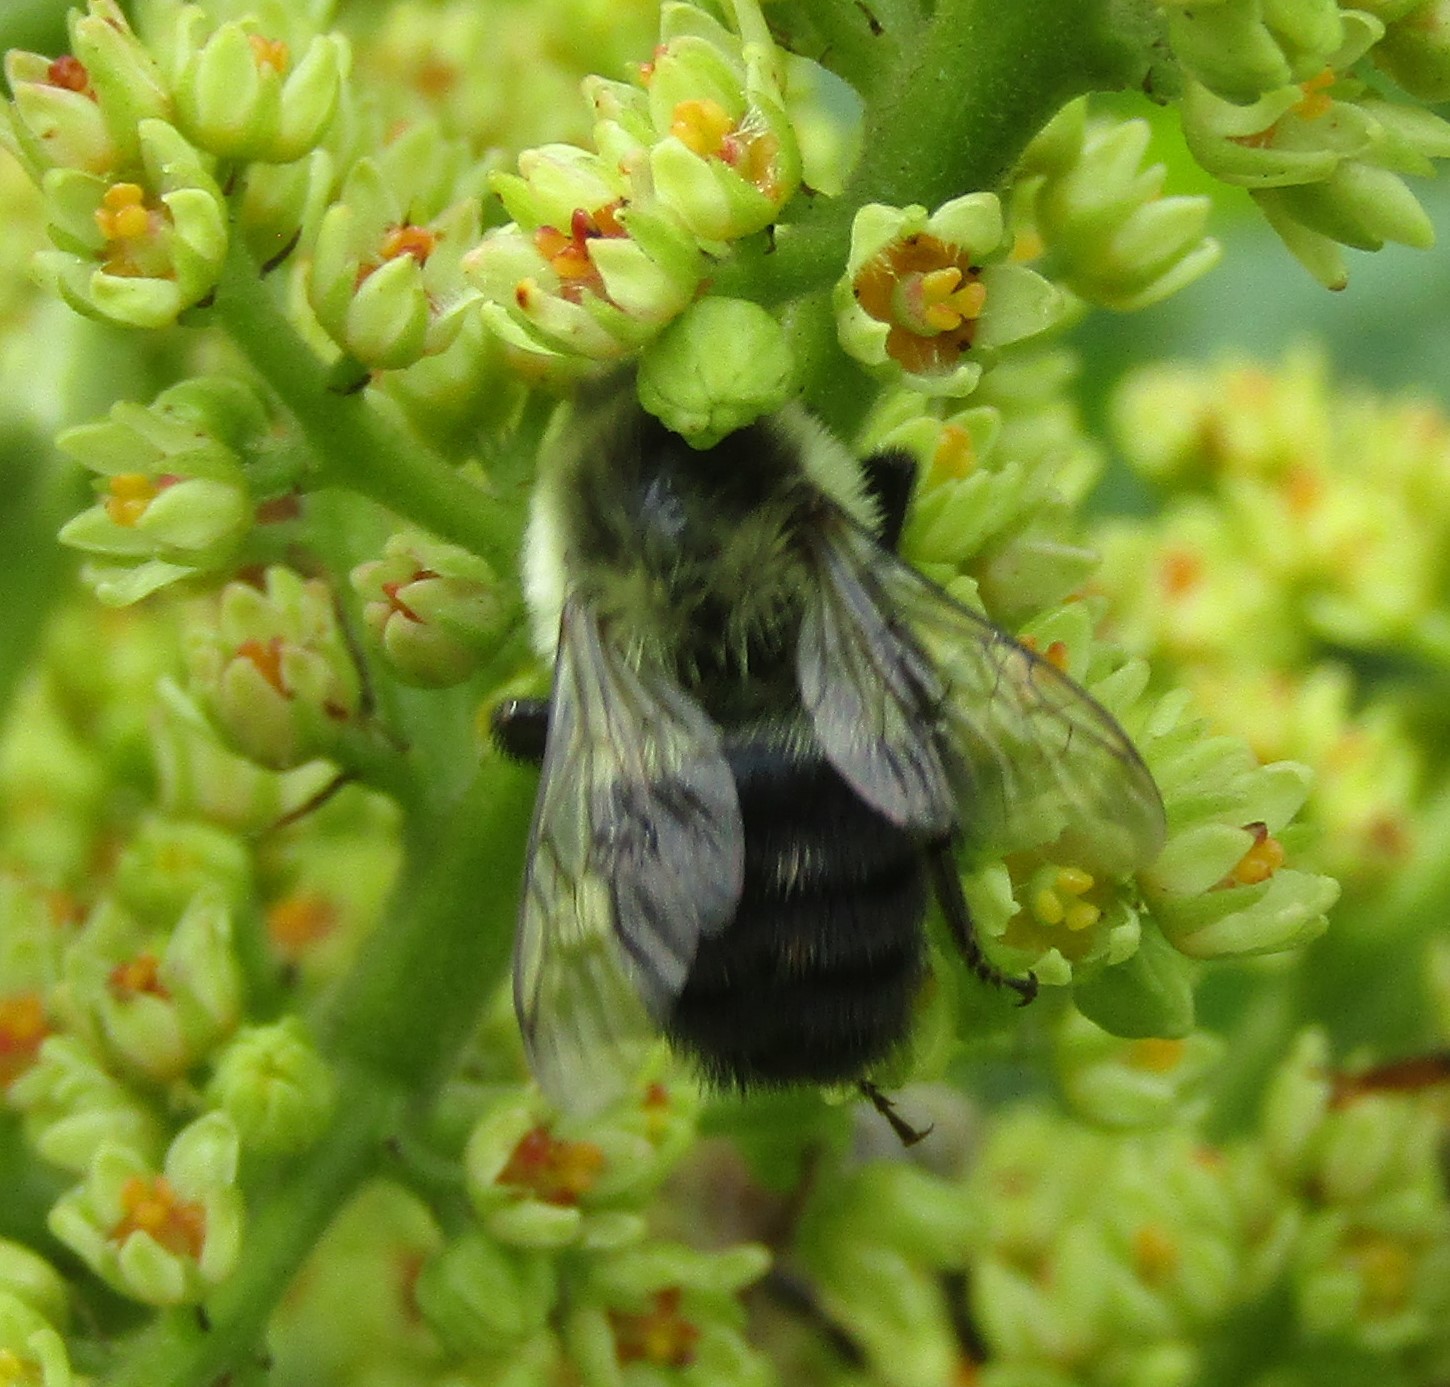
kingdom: Animalia
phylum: Arthropoda
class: Insecta
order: Hymenoptera
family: Apidae
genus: Bombus
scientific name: Bombus impatiens
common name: Common eastern bumble bee
